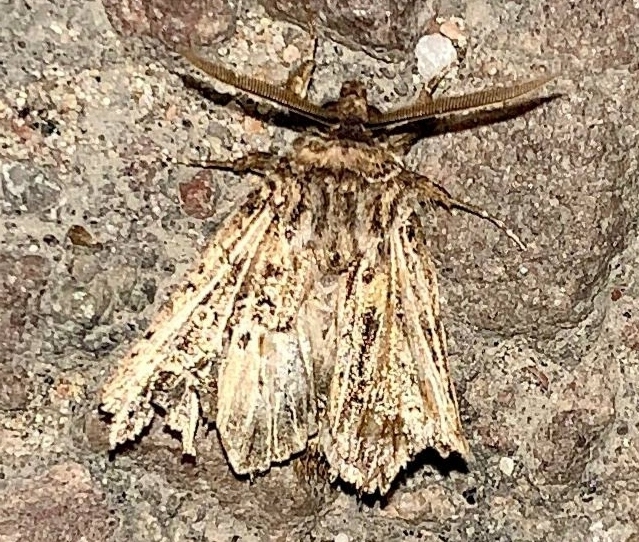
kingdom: Animalia
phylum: Arthropoda
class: Insecta
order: Lepidoptera
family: Noctuidae
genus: Tholera
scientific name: Tholera decimalis
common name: Feathered gothic
